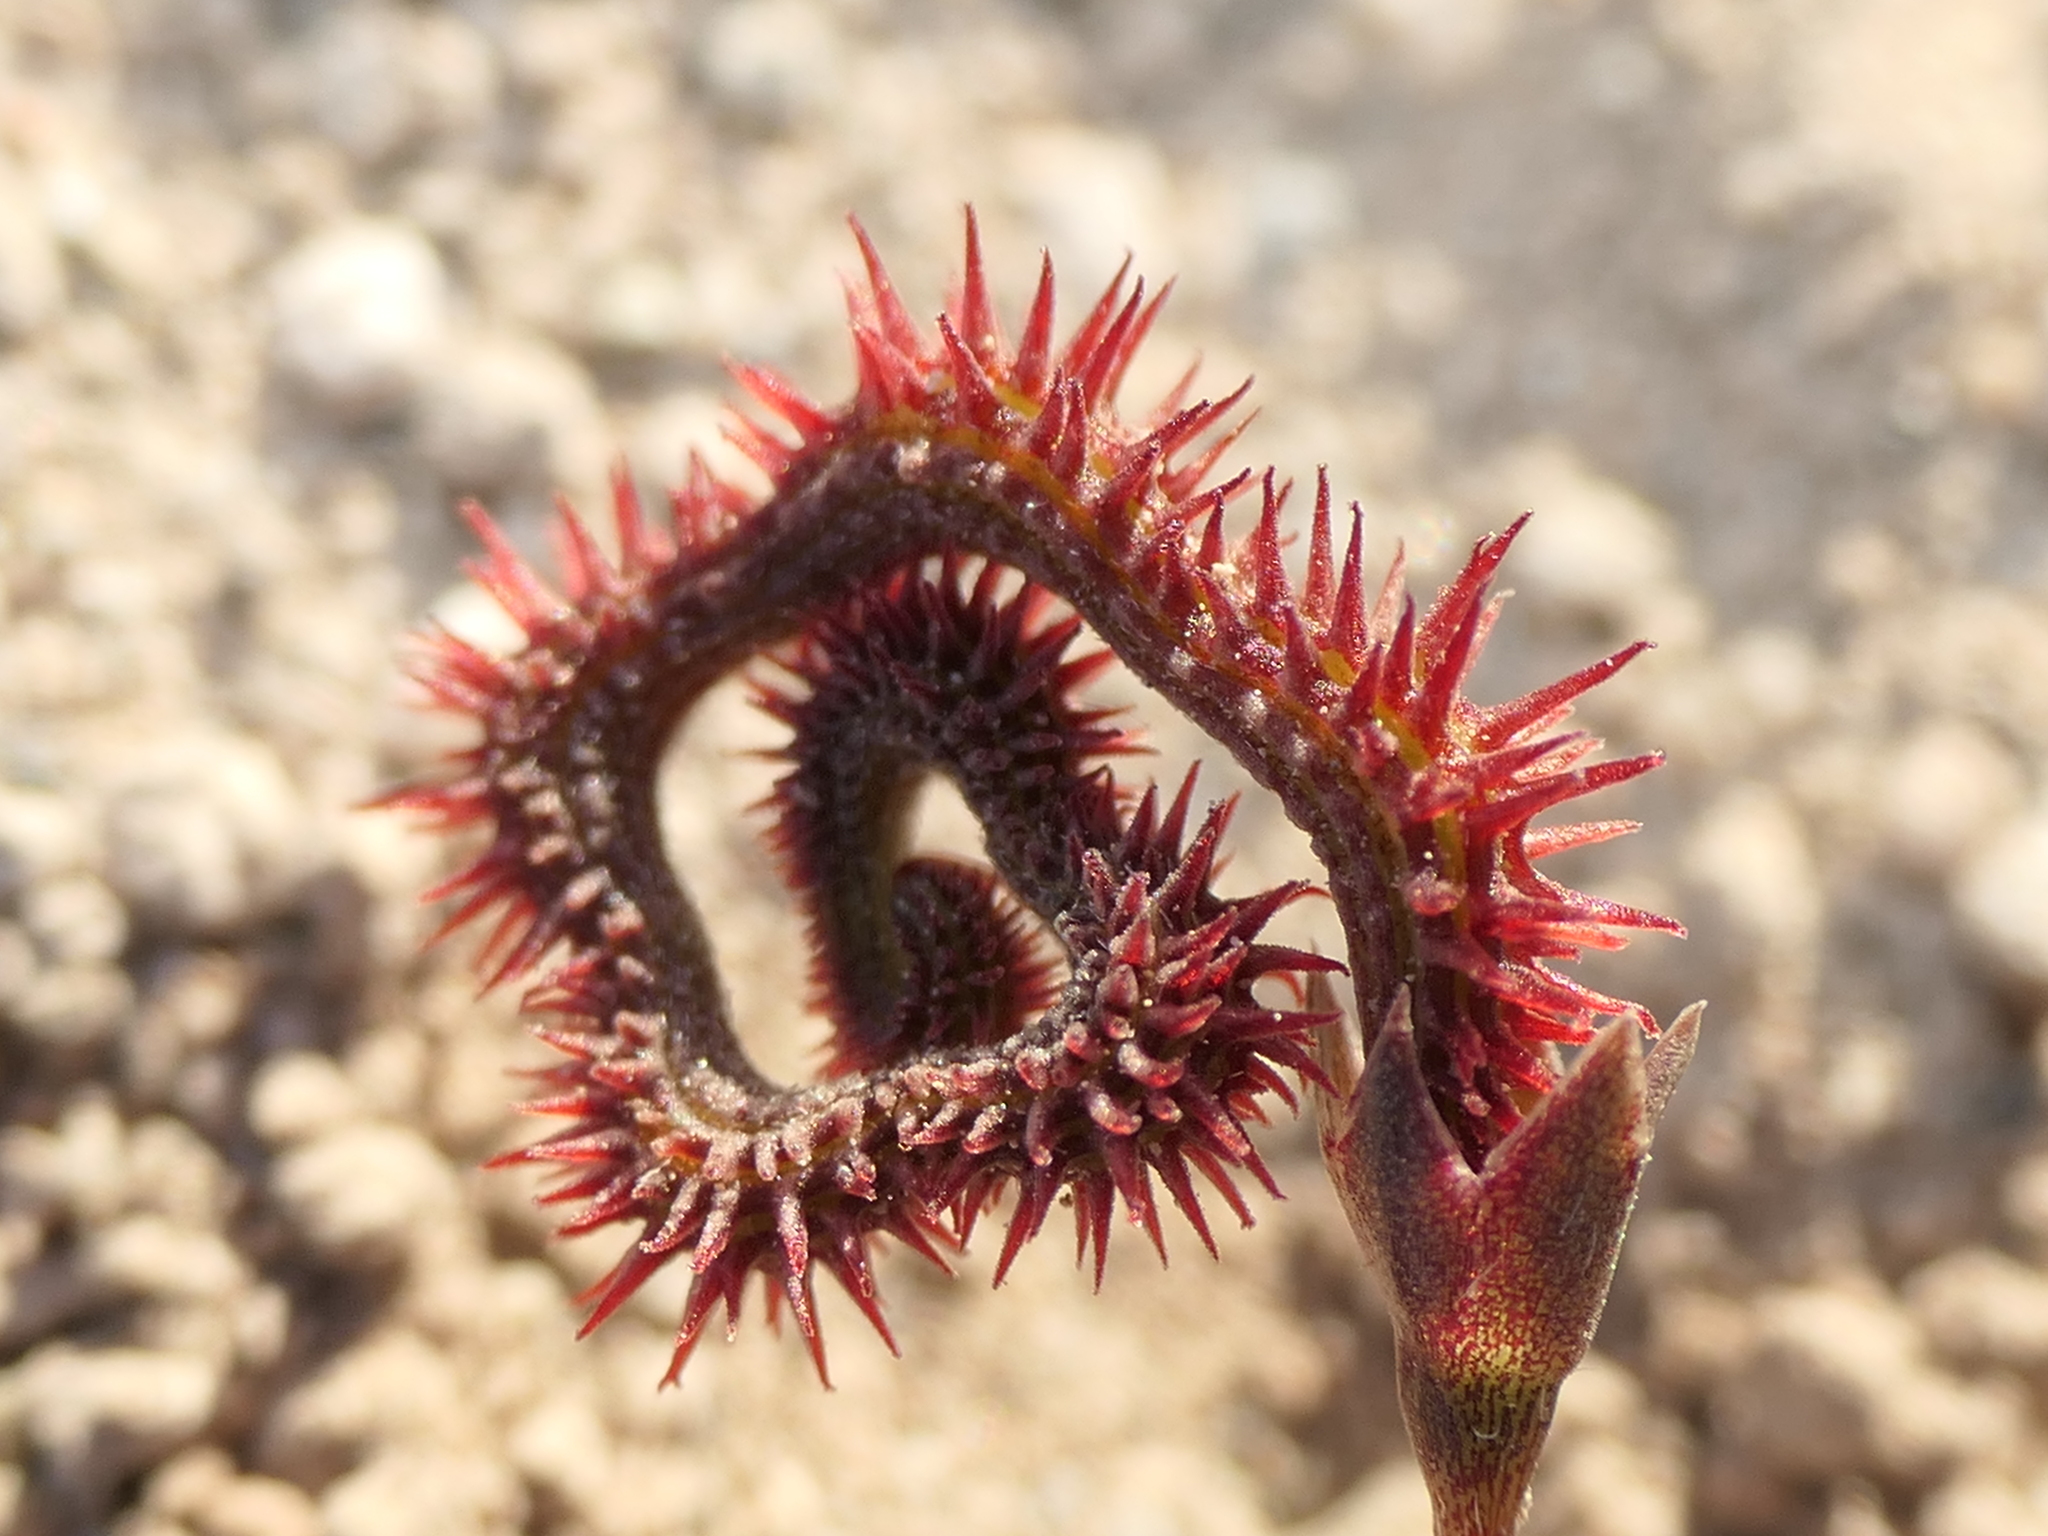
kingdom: Plantae
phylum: Tracheophyta
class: Magnoliopsida
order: Fabales
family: Fabaceae
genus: Scorpiurus
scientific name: Scorpiurus muricatus
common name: Caterpillar-plant
